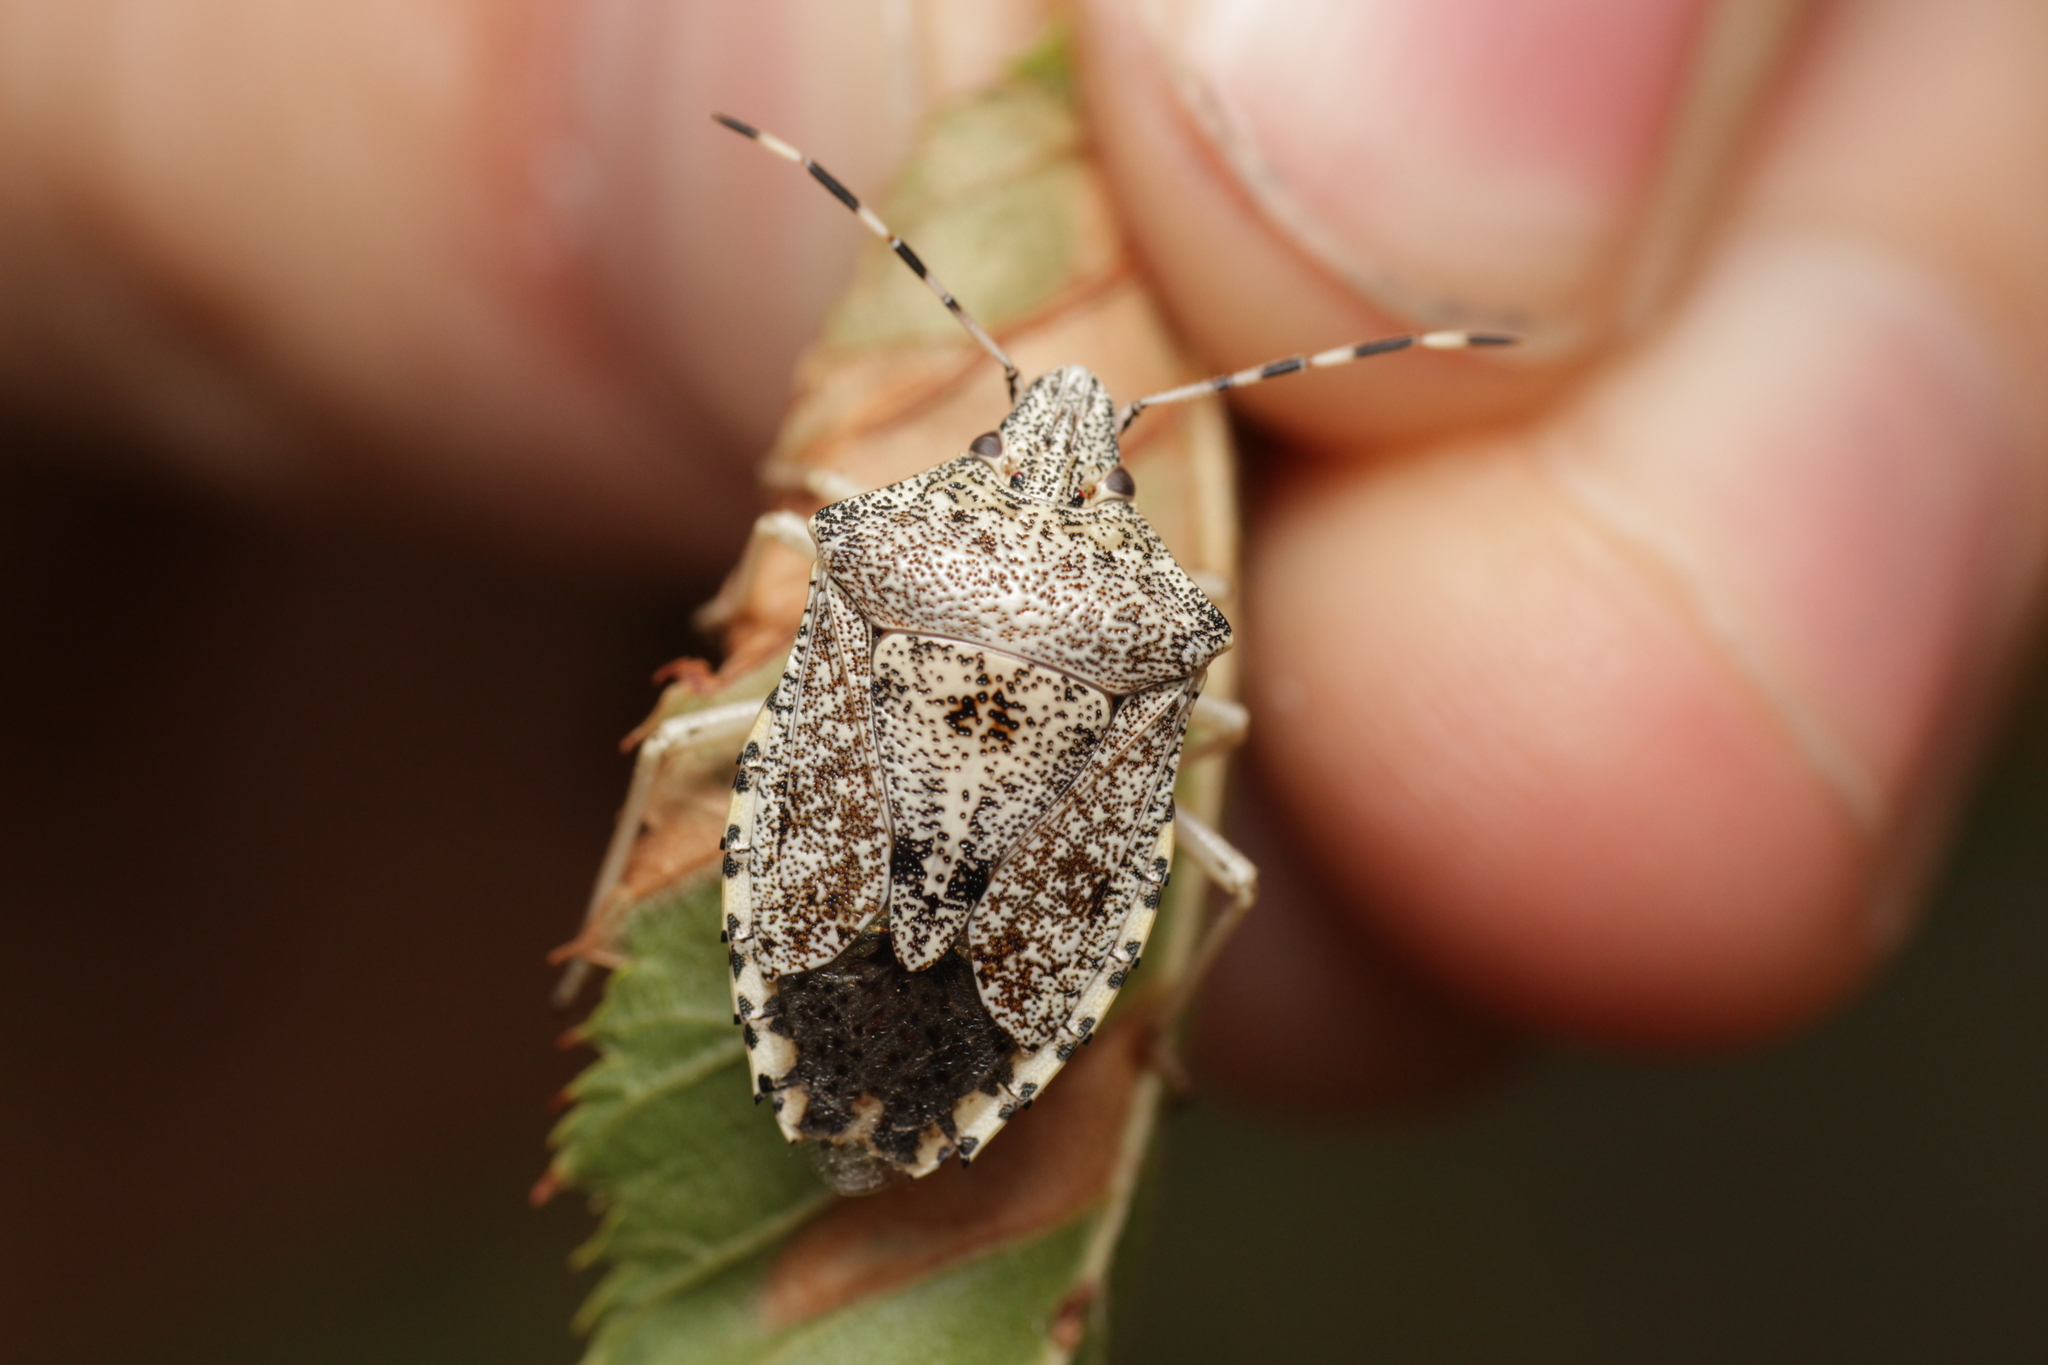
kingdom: Animalia
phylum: Arthropoda
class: Insecta
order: Hemiptera
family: Pentatomidae
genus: Rhaphigaster
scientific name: Rhaphigaster nebulosa
